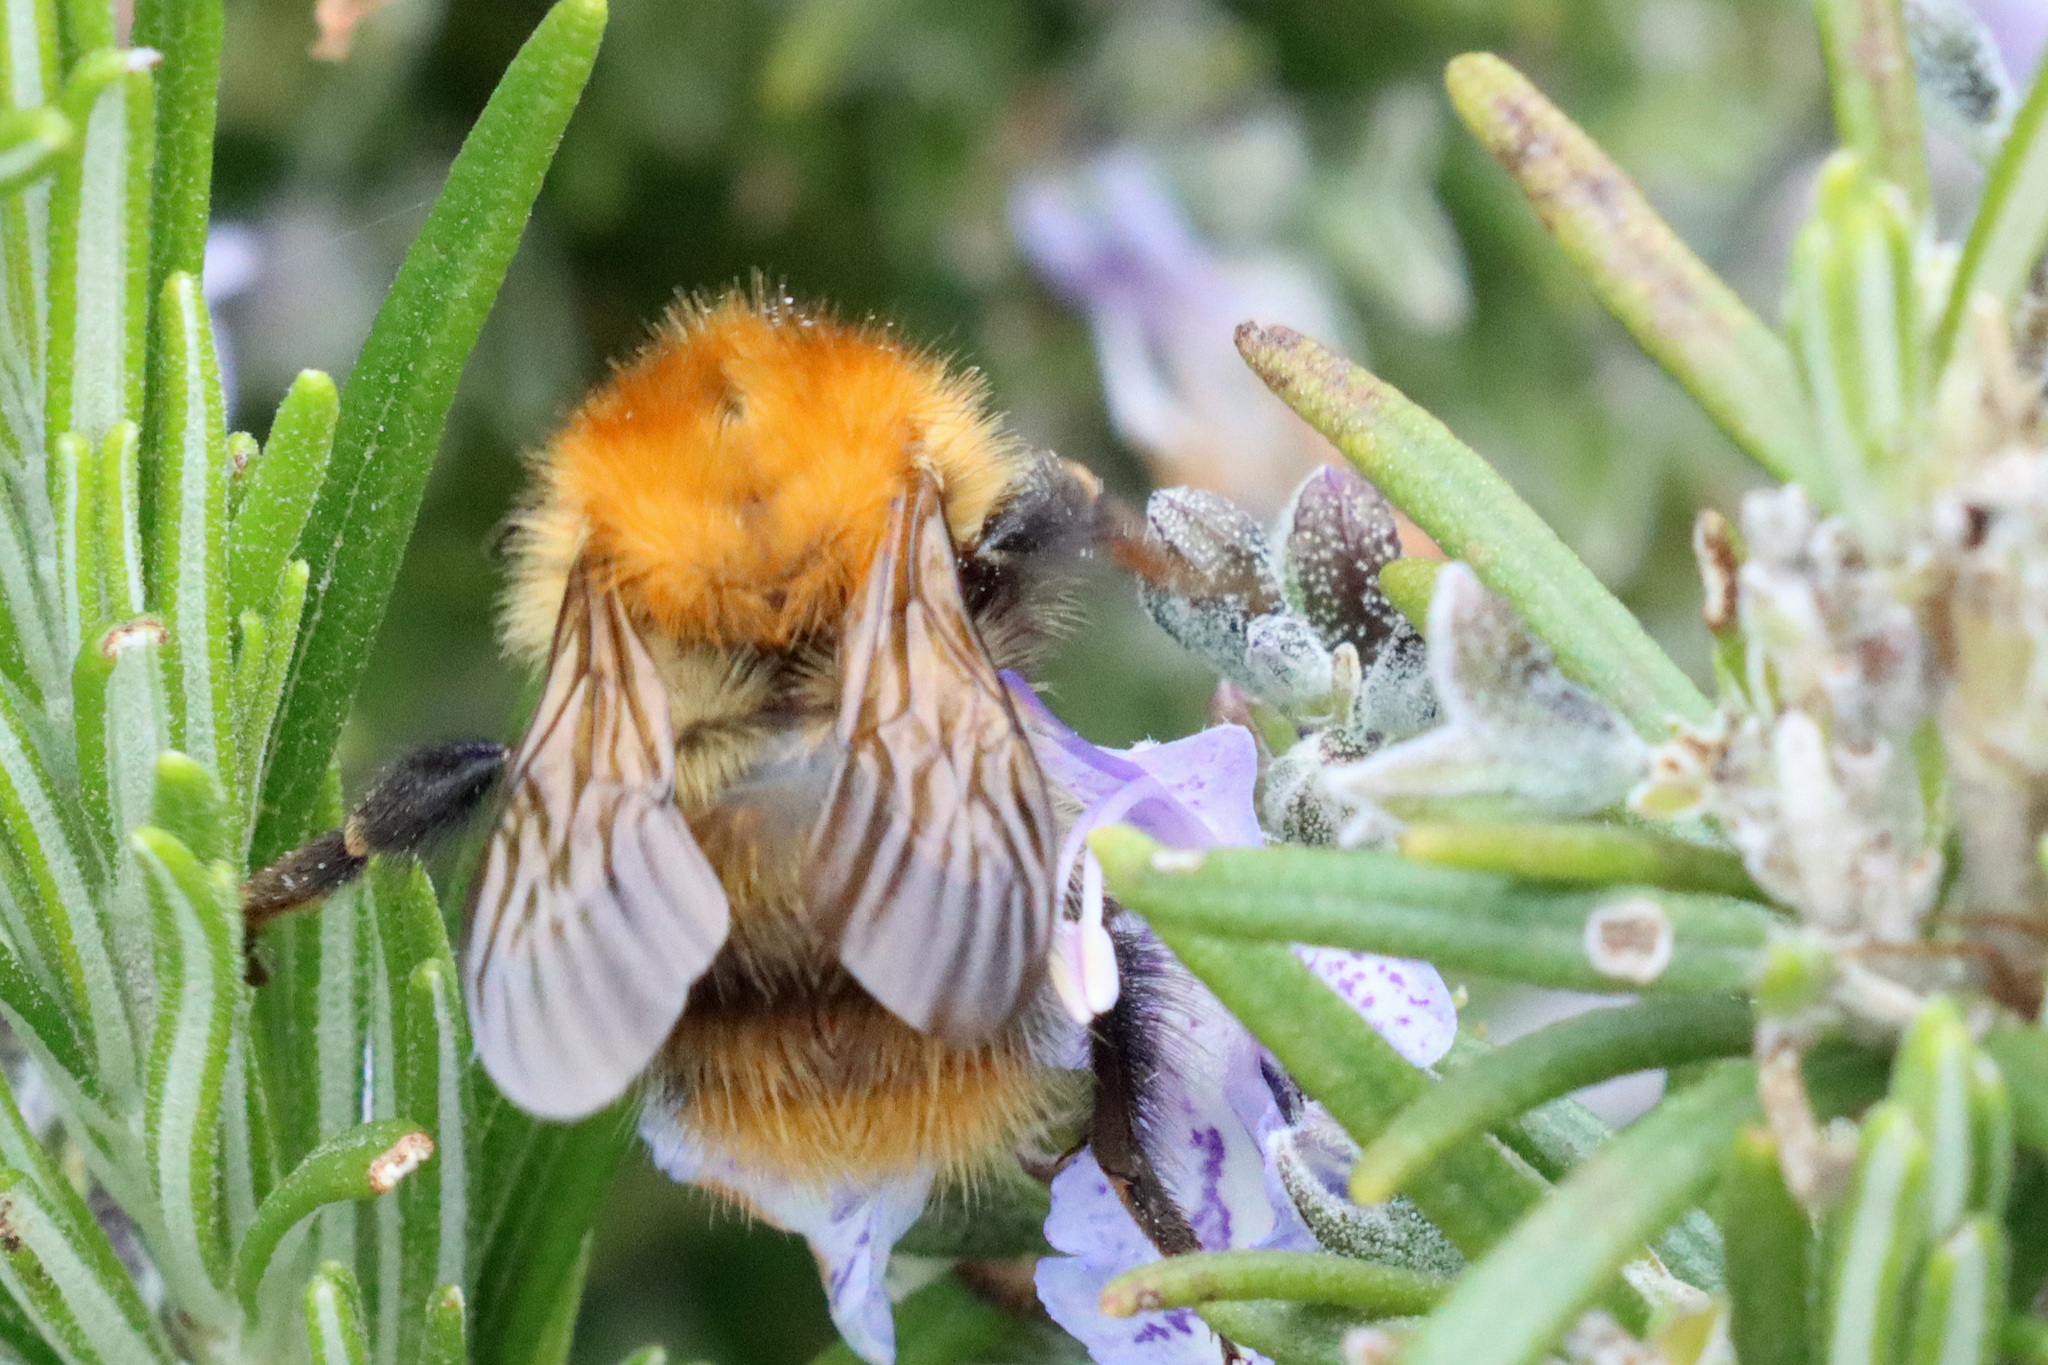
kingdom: Animalia
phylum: Arthropoda
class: Insecta
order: Hymenoptera
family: Apidae
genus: Bombus
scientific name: Bombus pascuorum
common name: Common carder bee
